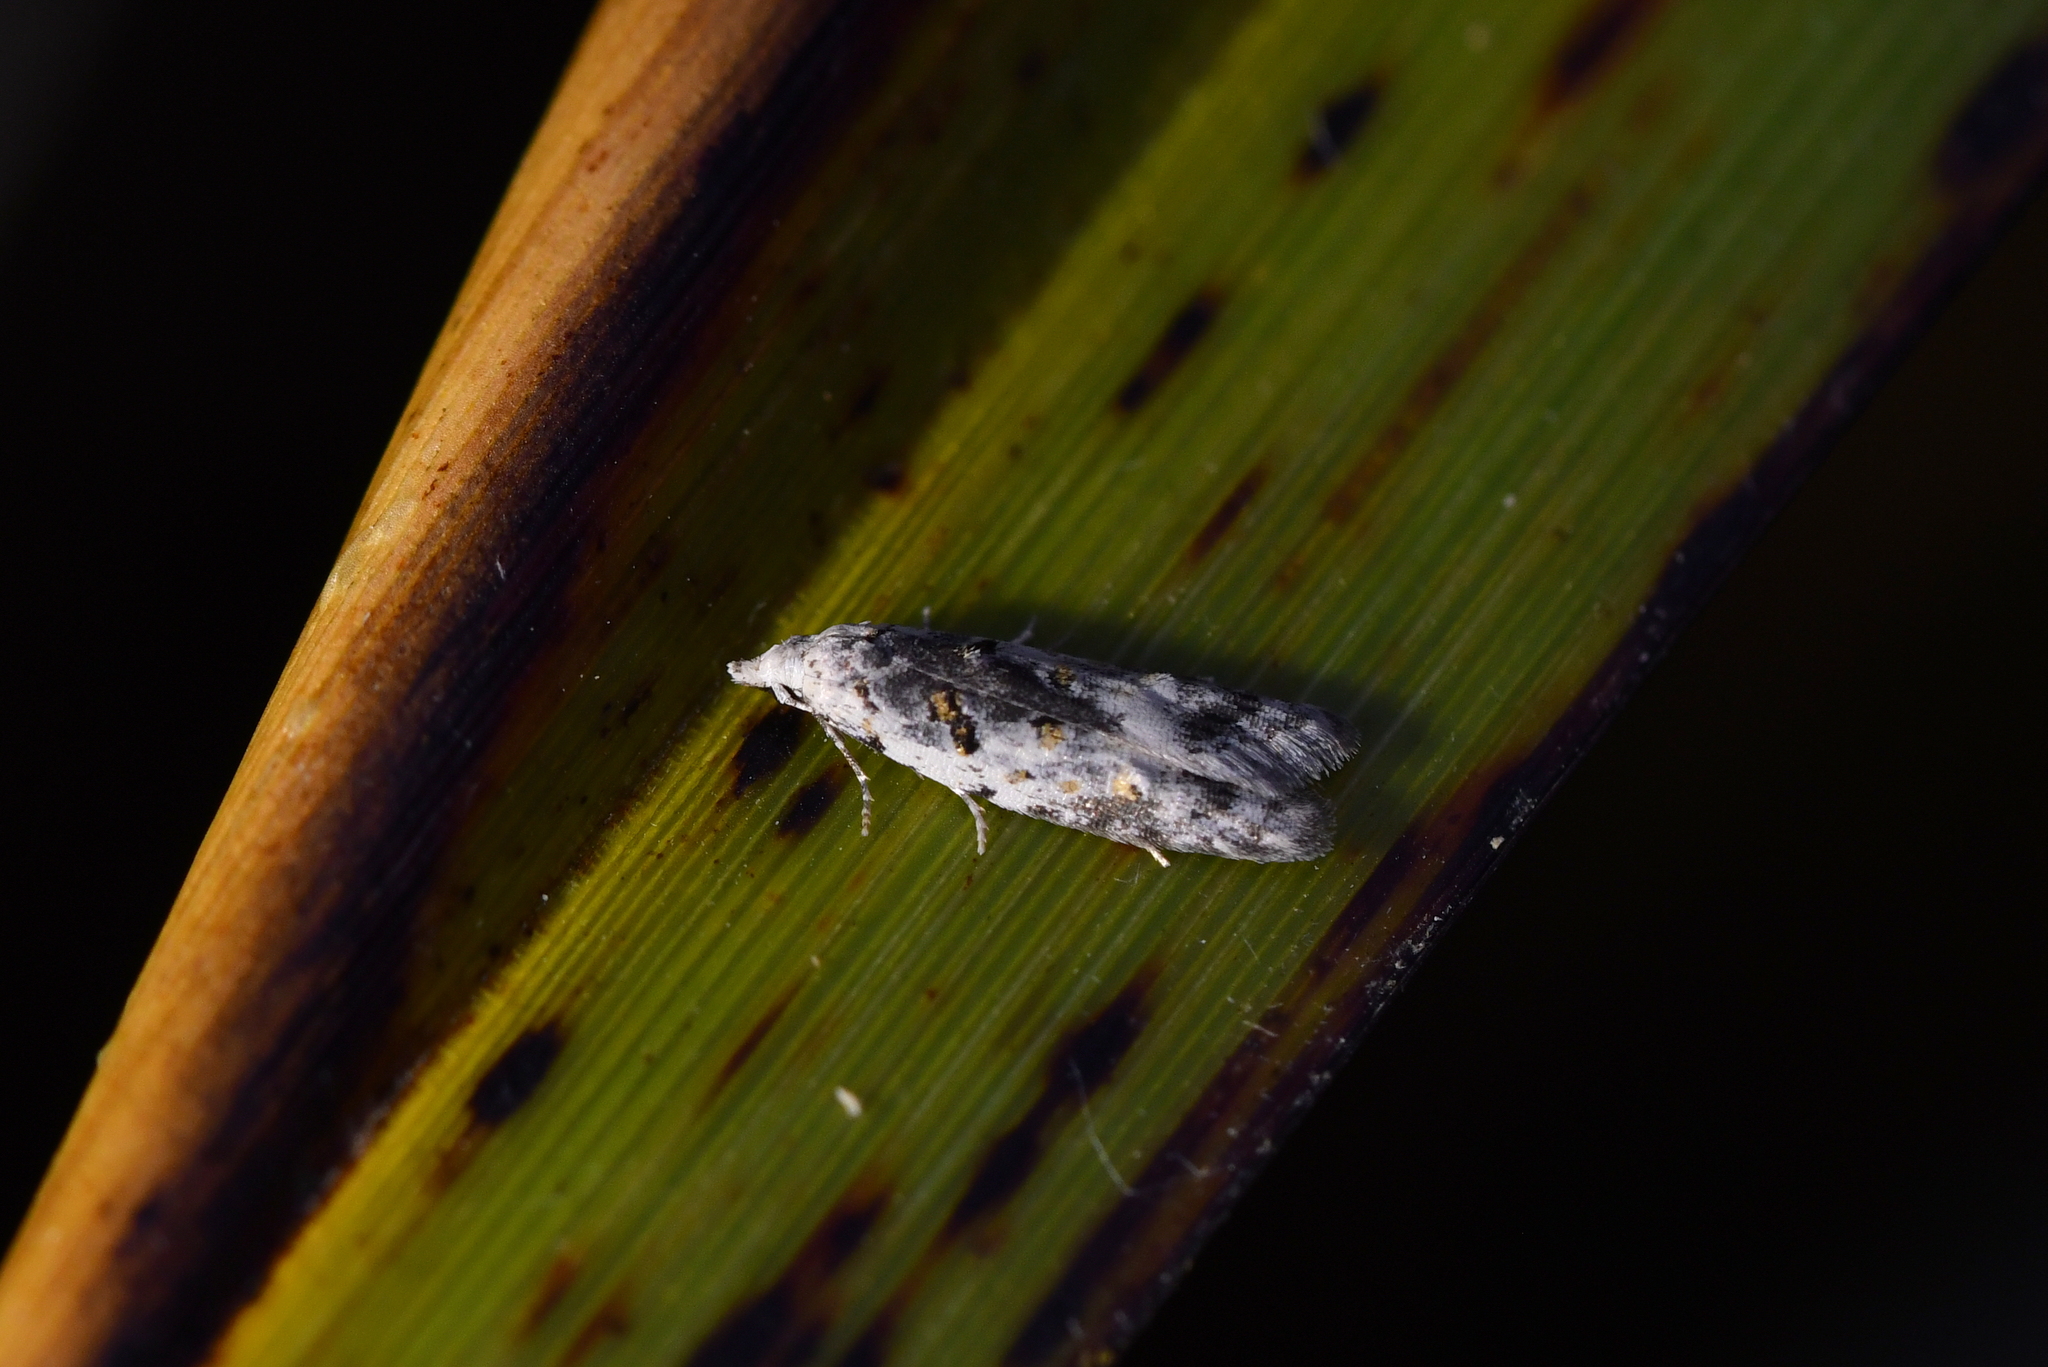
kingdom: Animalia
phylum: Arthropoda
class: Insecta
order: Lepidoptera
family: Carposinidae
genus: Carposina
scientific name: Carposina
